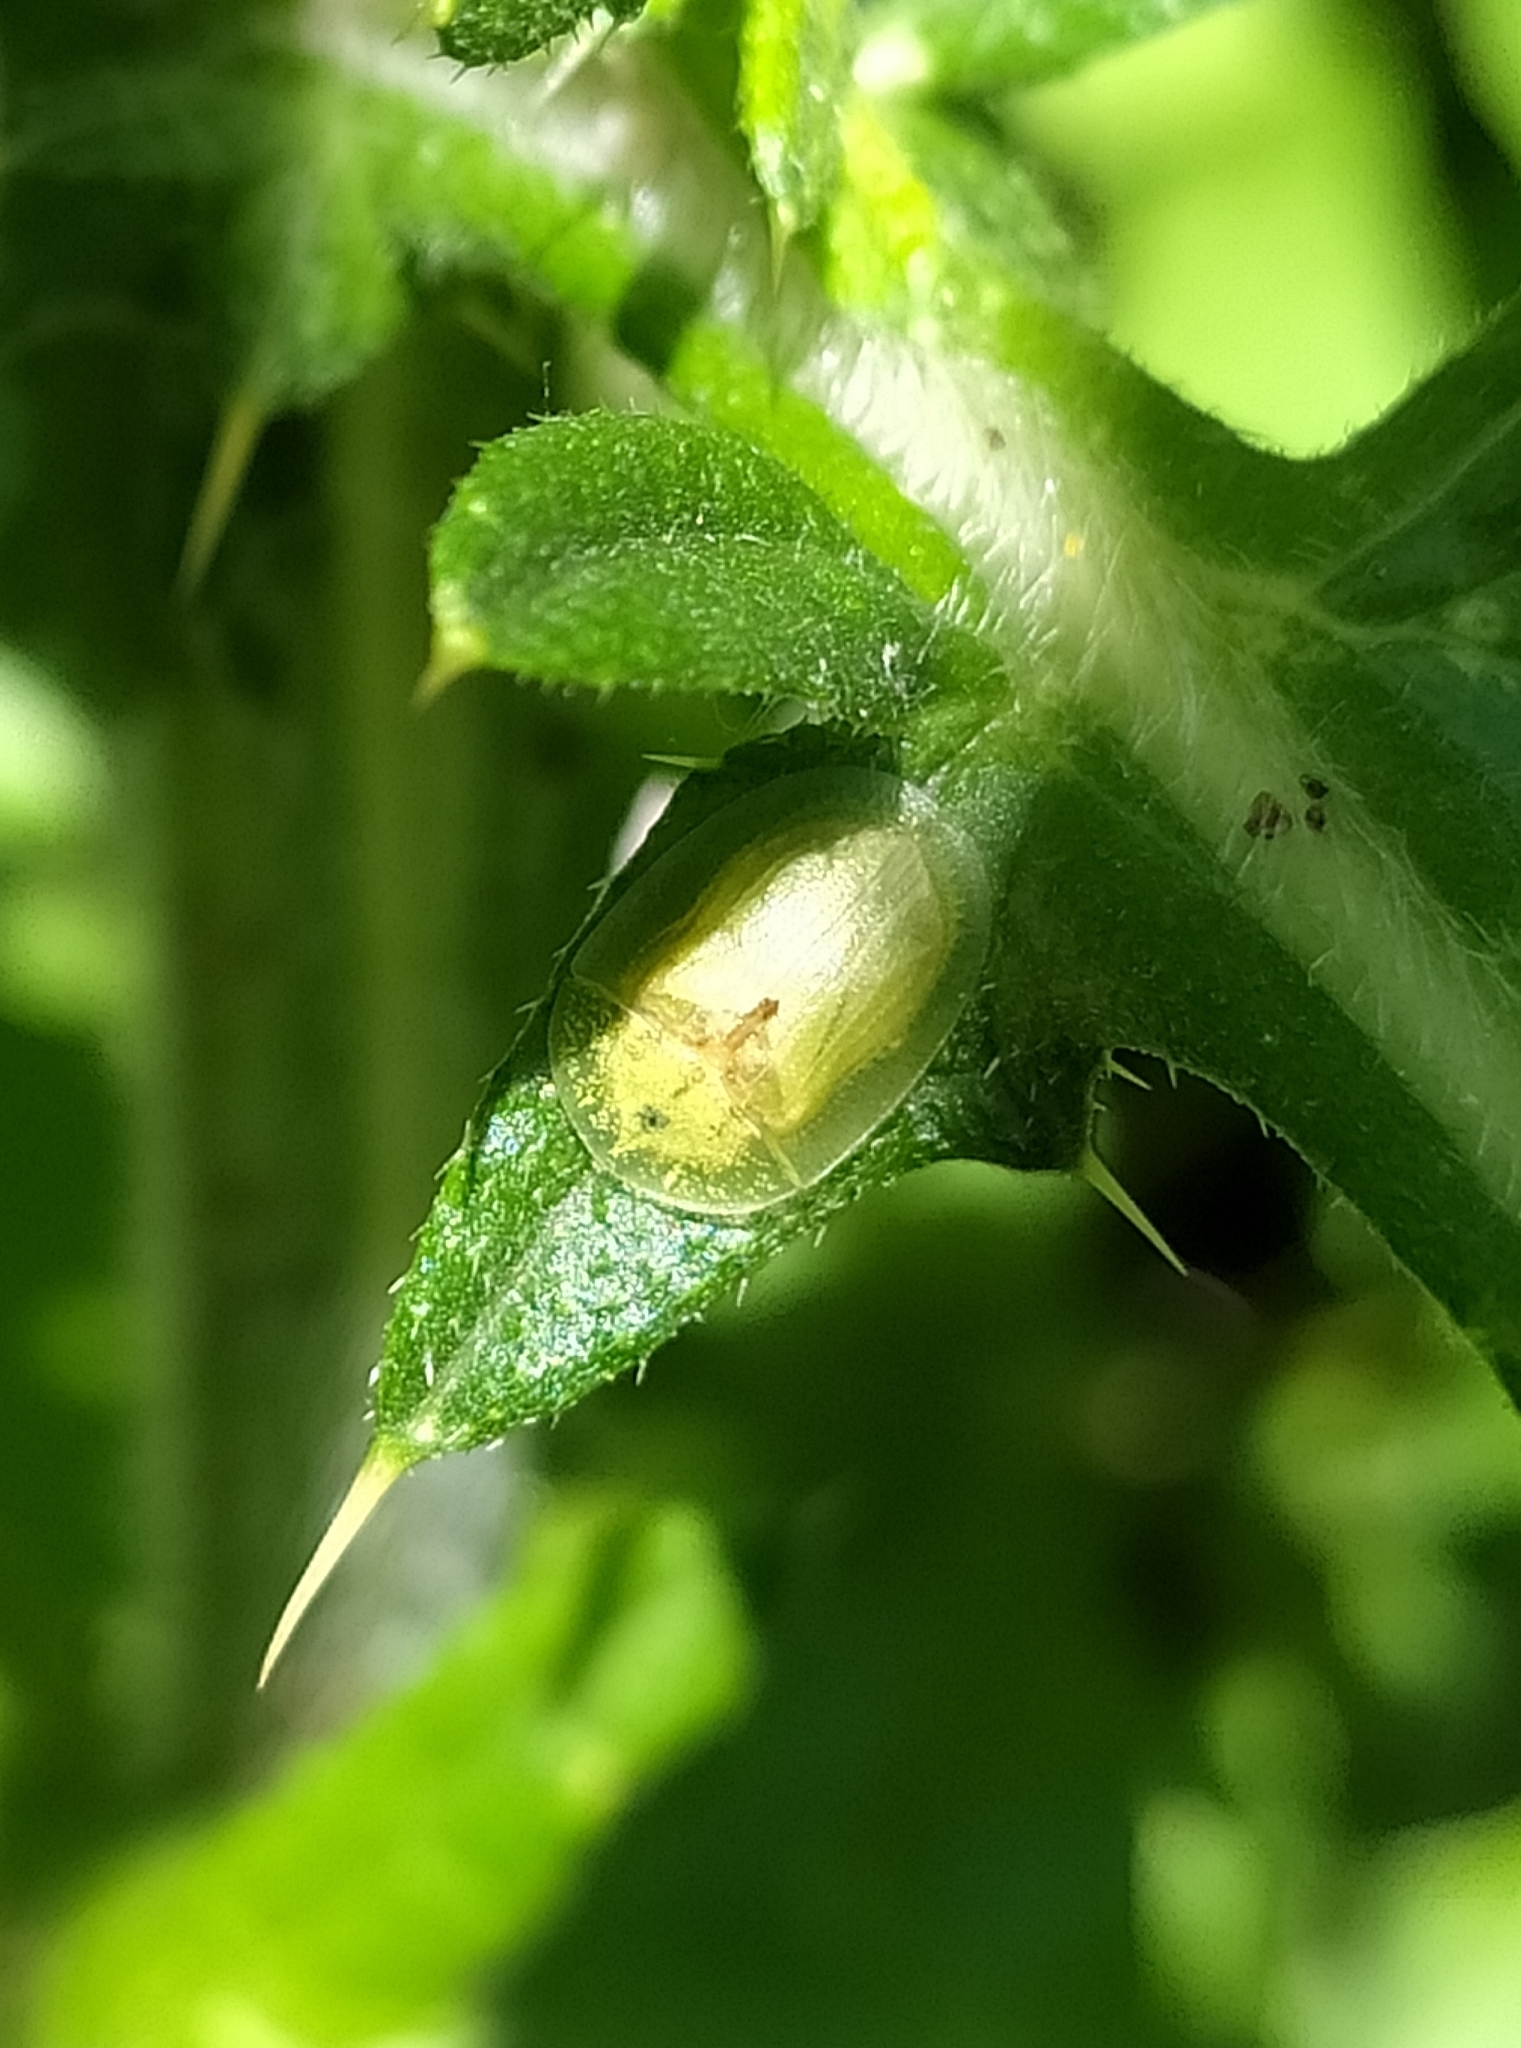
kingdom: Animalia
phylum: Arthropoda
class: Insecta
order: Coleoptera
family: Chrysomelidae
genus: Cassida
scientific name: Cassida deflorata
